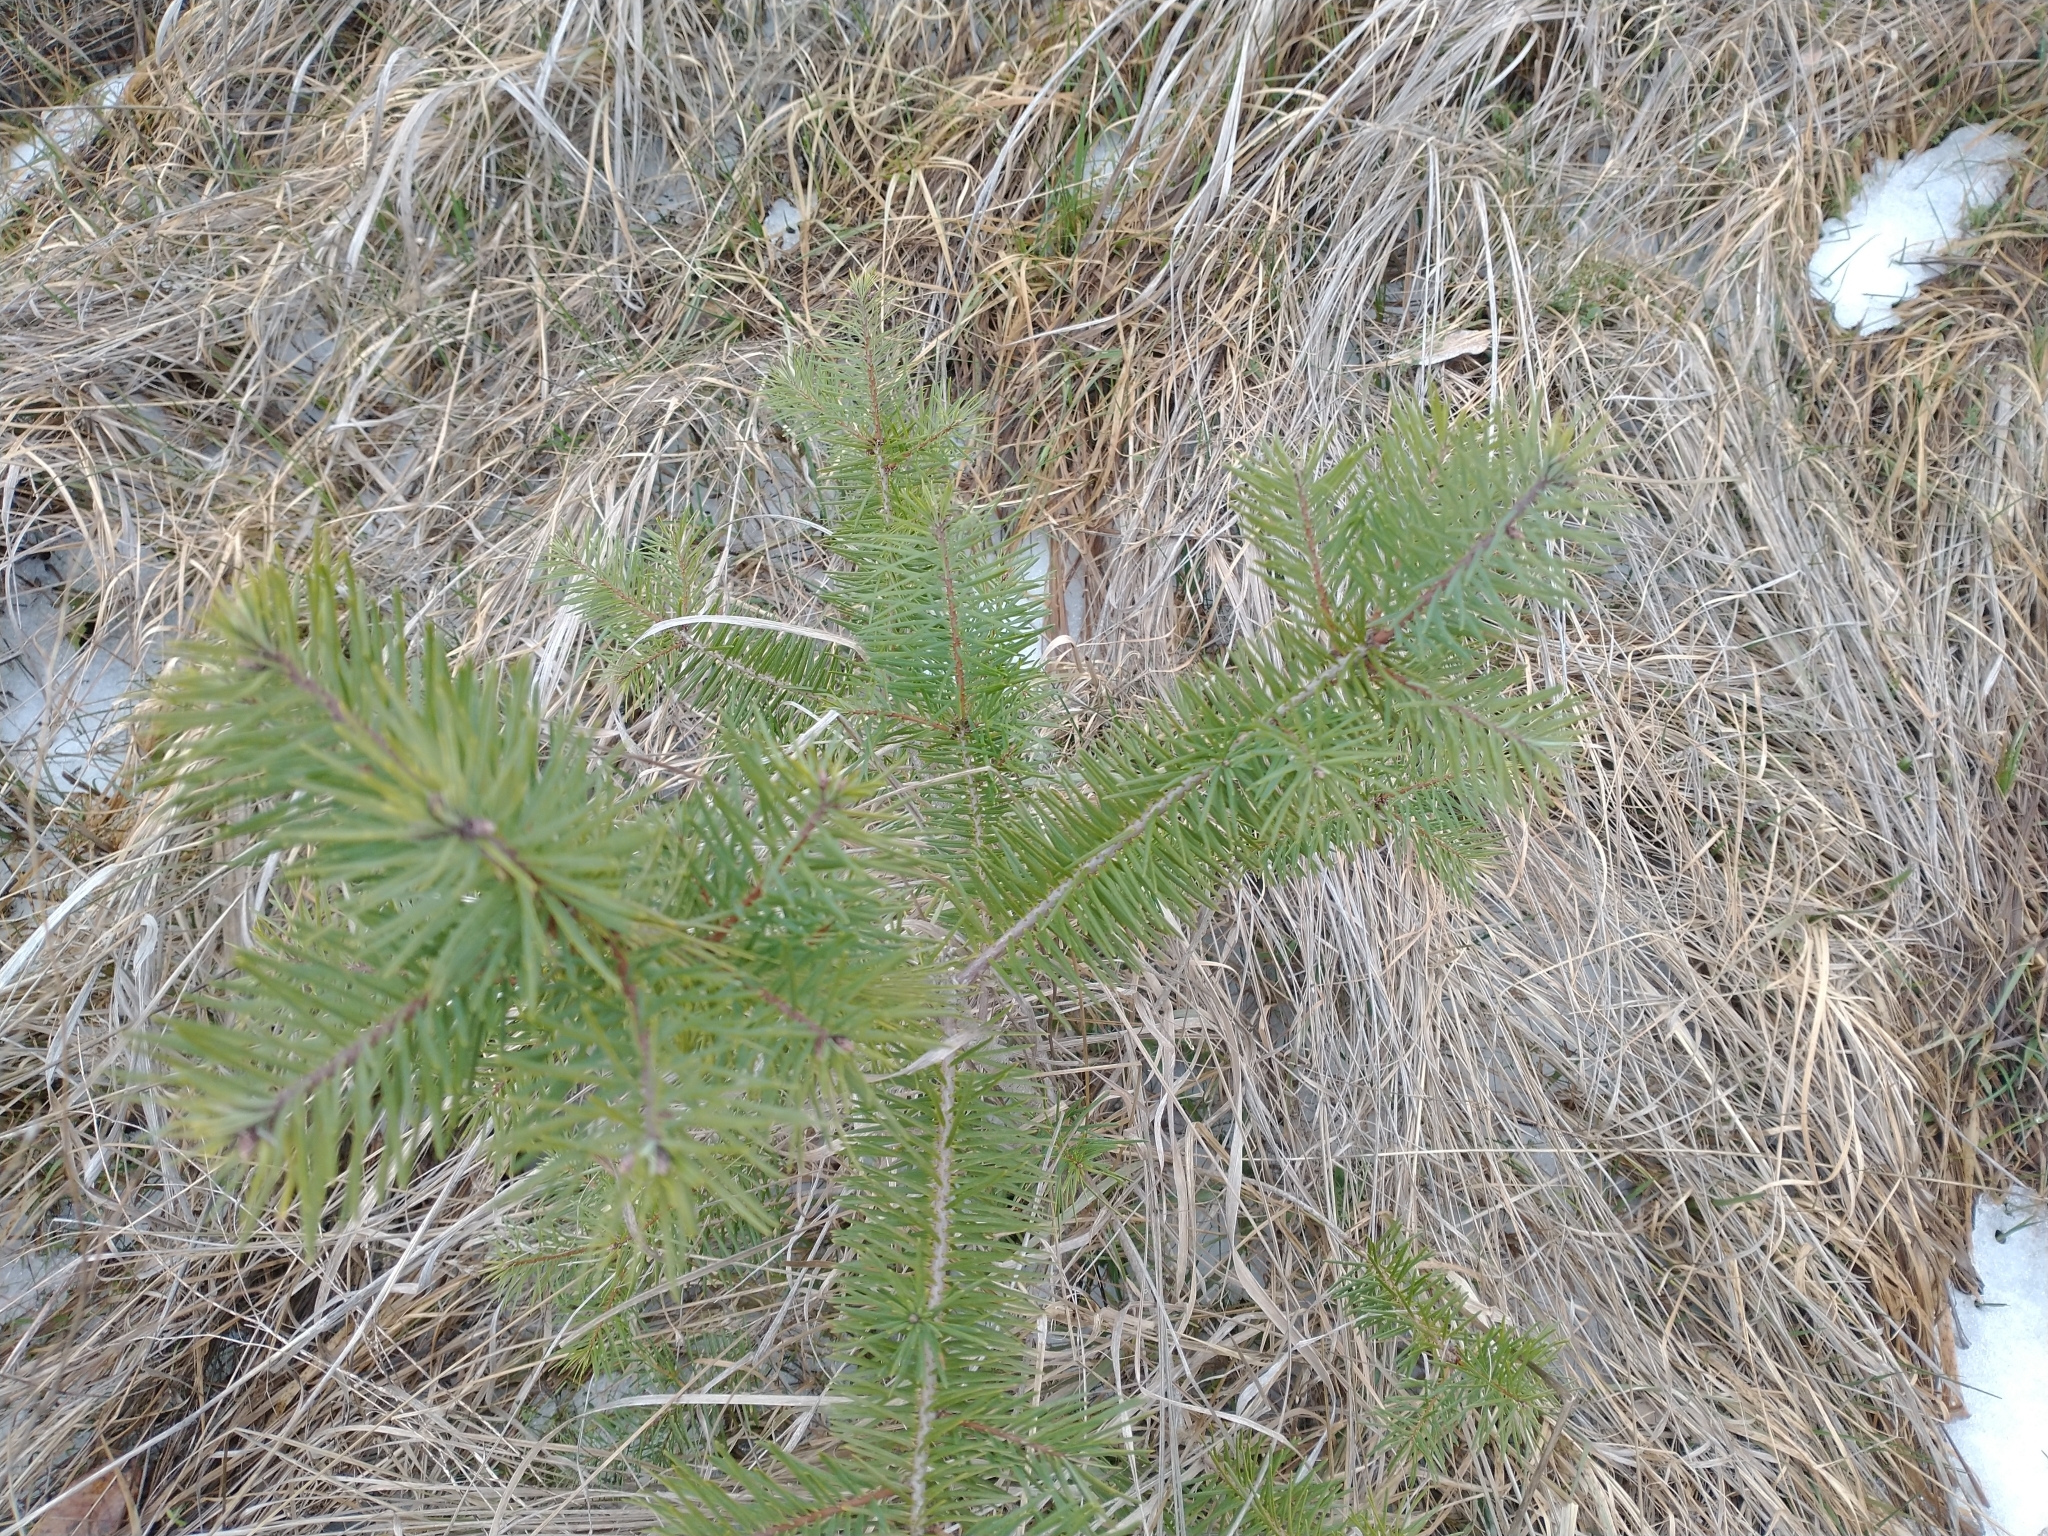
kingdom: Plantae
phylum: Tracheophyta
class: Pinopsida
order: Pinales
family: Pinaceae
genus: Pseudotsuga
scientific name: Pseudotsuga menziesii
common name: Douglas fir
